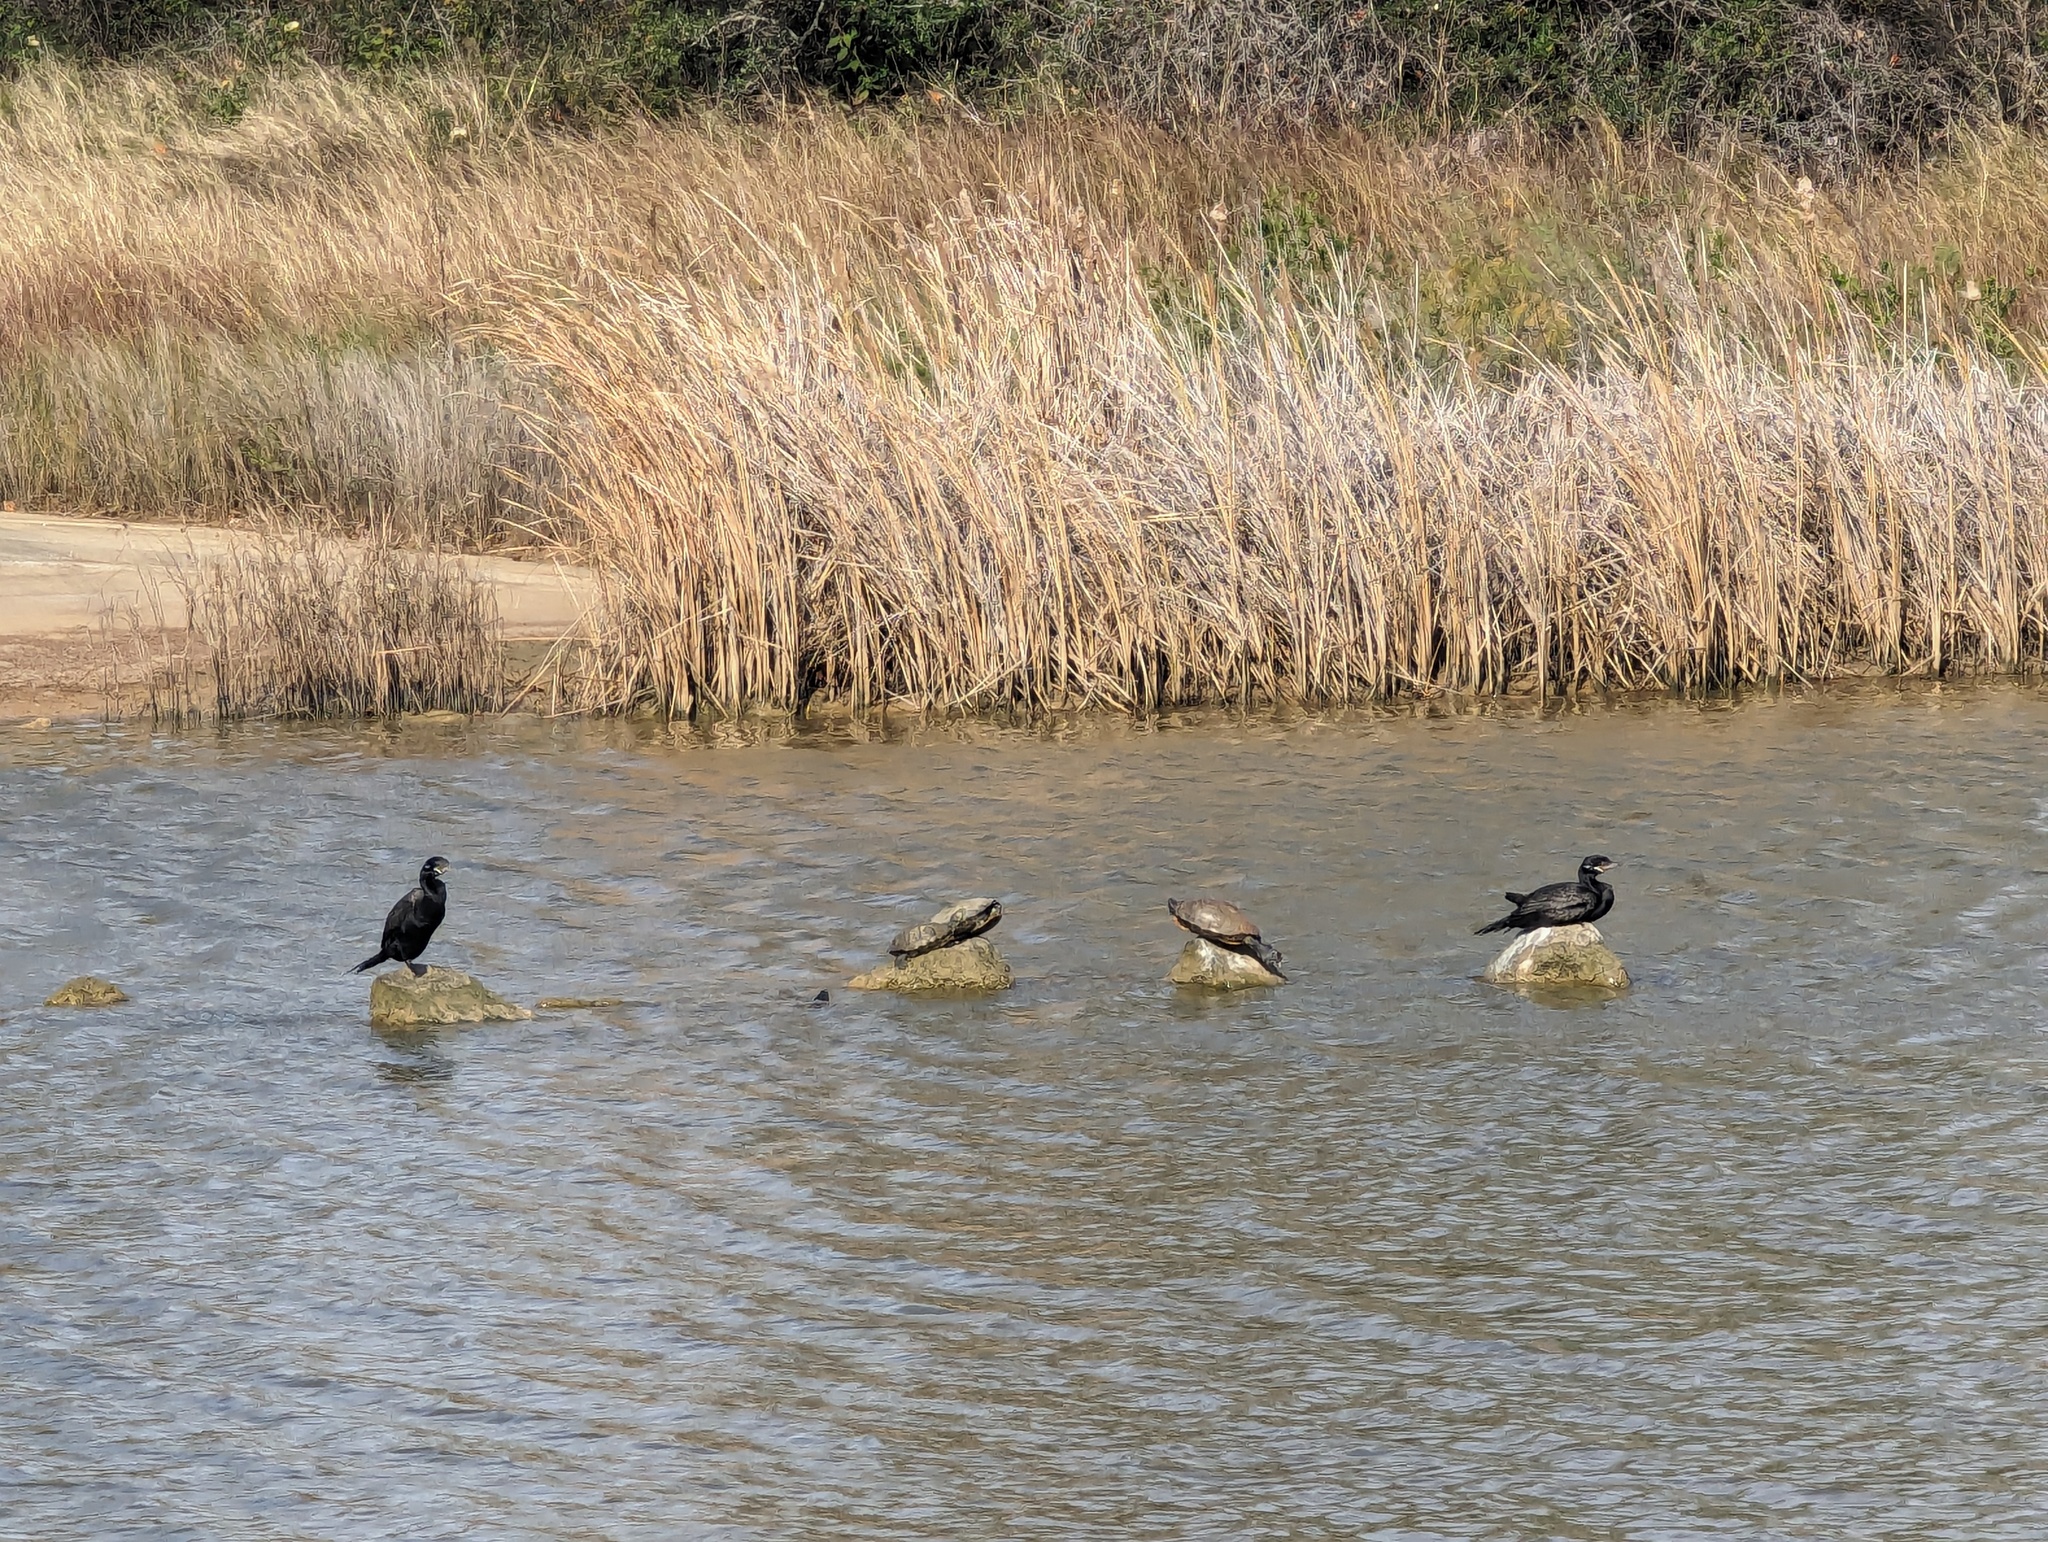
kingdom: Animalia
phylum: Chordata
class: Aves
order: Suliformes
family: Phalacrocoracidae
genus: Phalacrocorax
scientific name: Phalacrocorax brasilianus
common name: Neotropic cormorant
